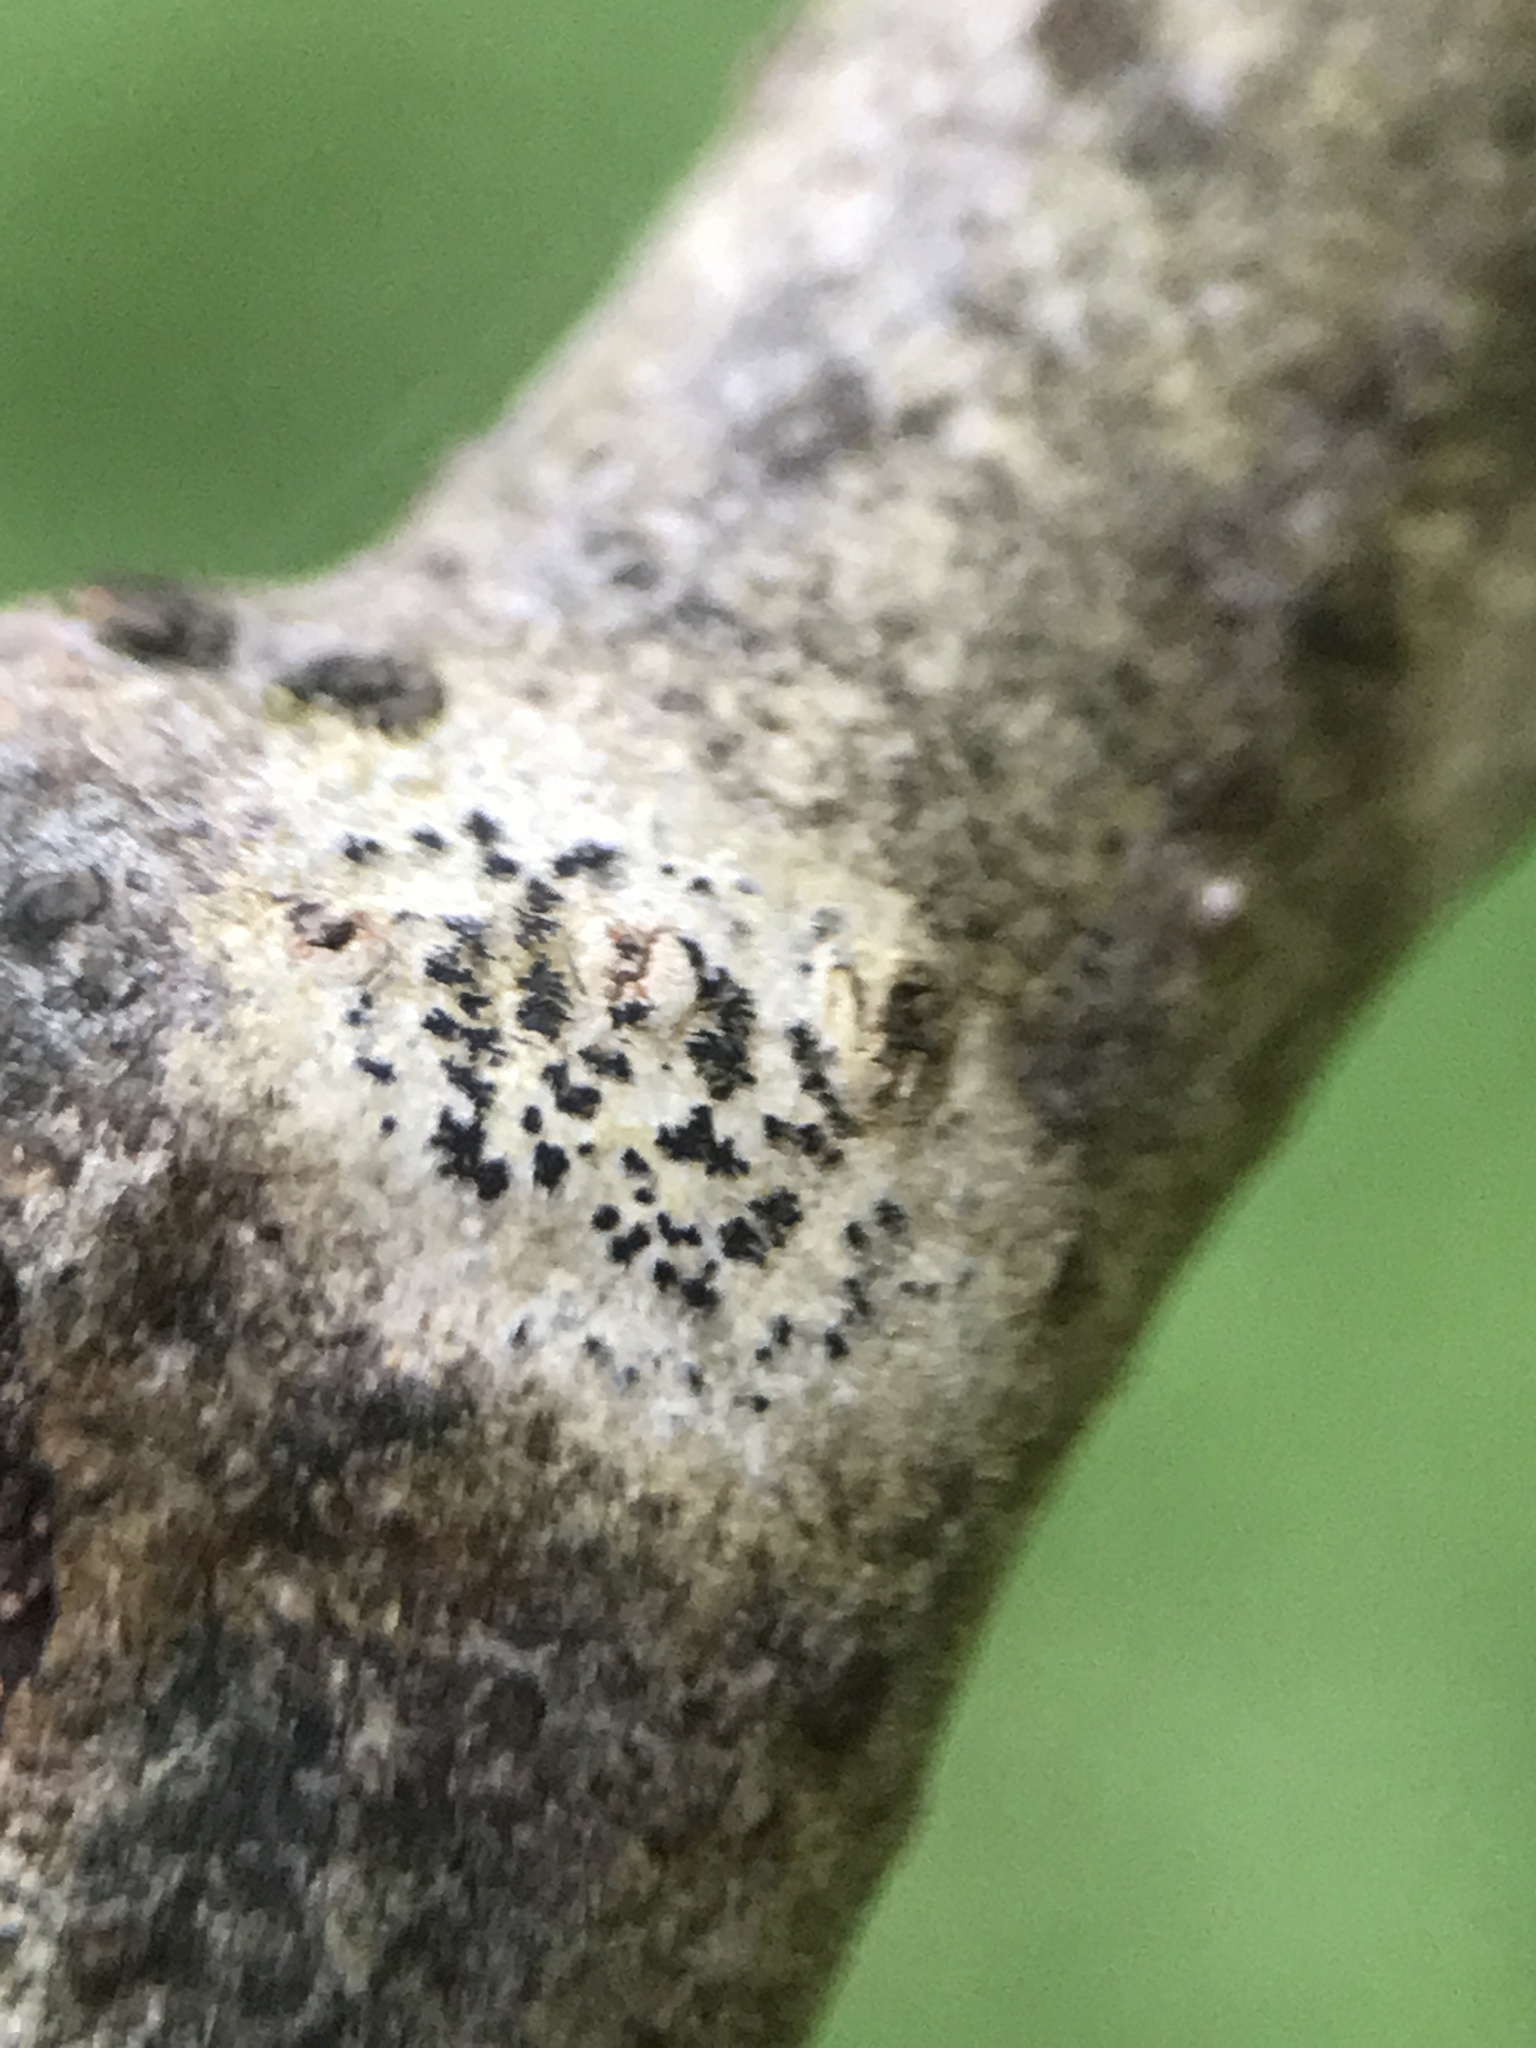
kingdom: Fungi
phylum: Ascomycota
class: Arthoniomycetes
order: Arthoniales
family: Arthoniaceae
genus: Arthonia
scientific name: Arthonia radiata
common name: Asterisk lichen
